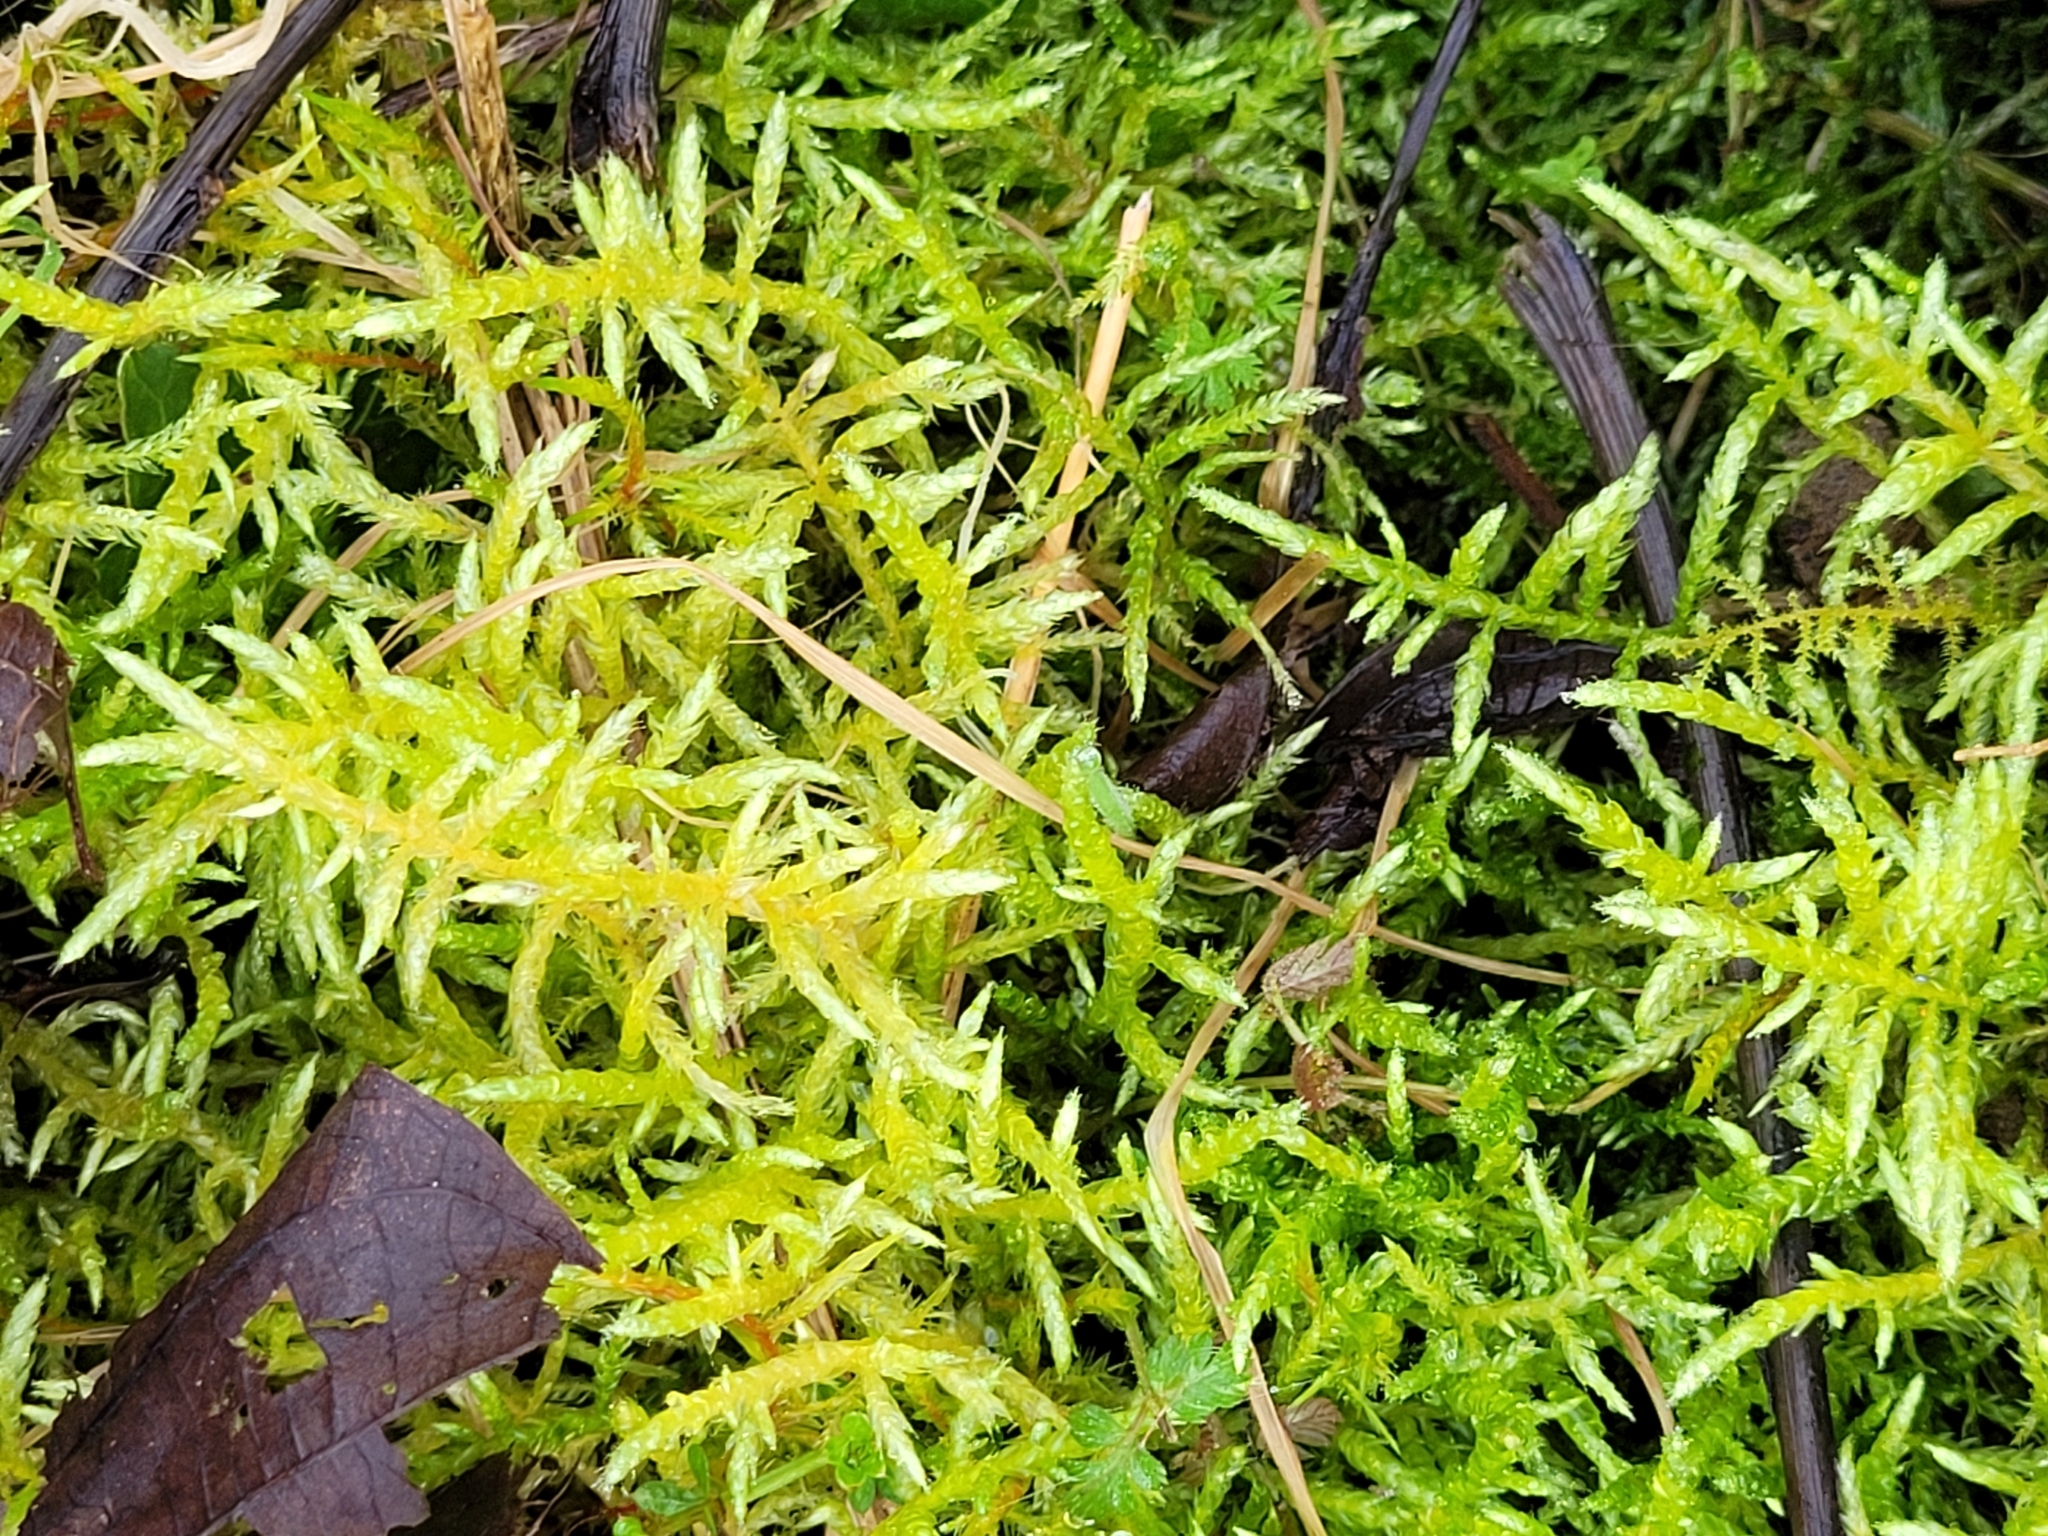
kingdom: Plantae
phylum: Bryophyta
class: Bryopsida
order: Hypnales
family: Brachytheciaceae
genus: Pseudoscleropodium
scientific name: Pseudoscleropodium purum
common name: Neat feather-moss
